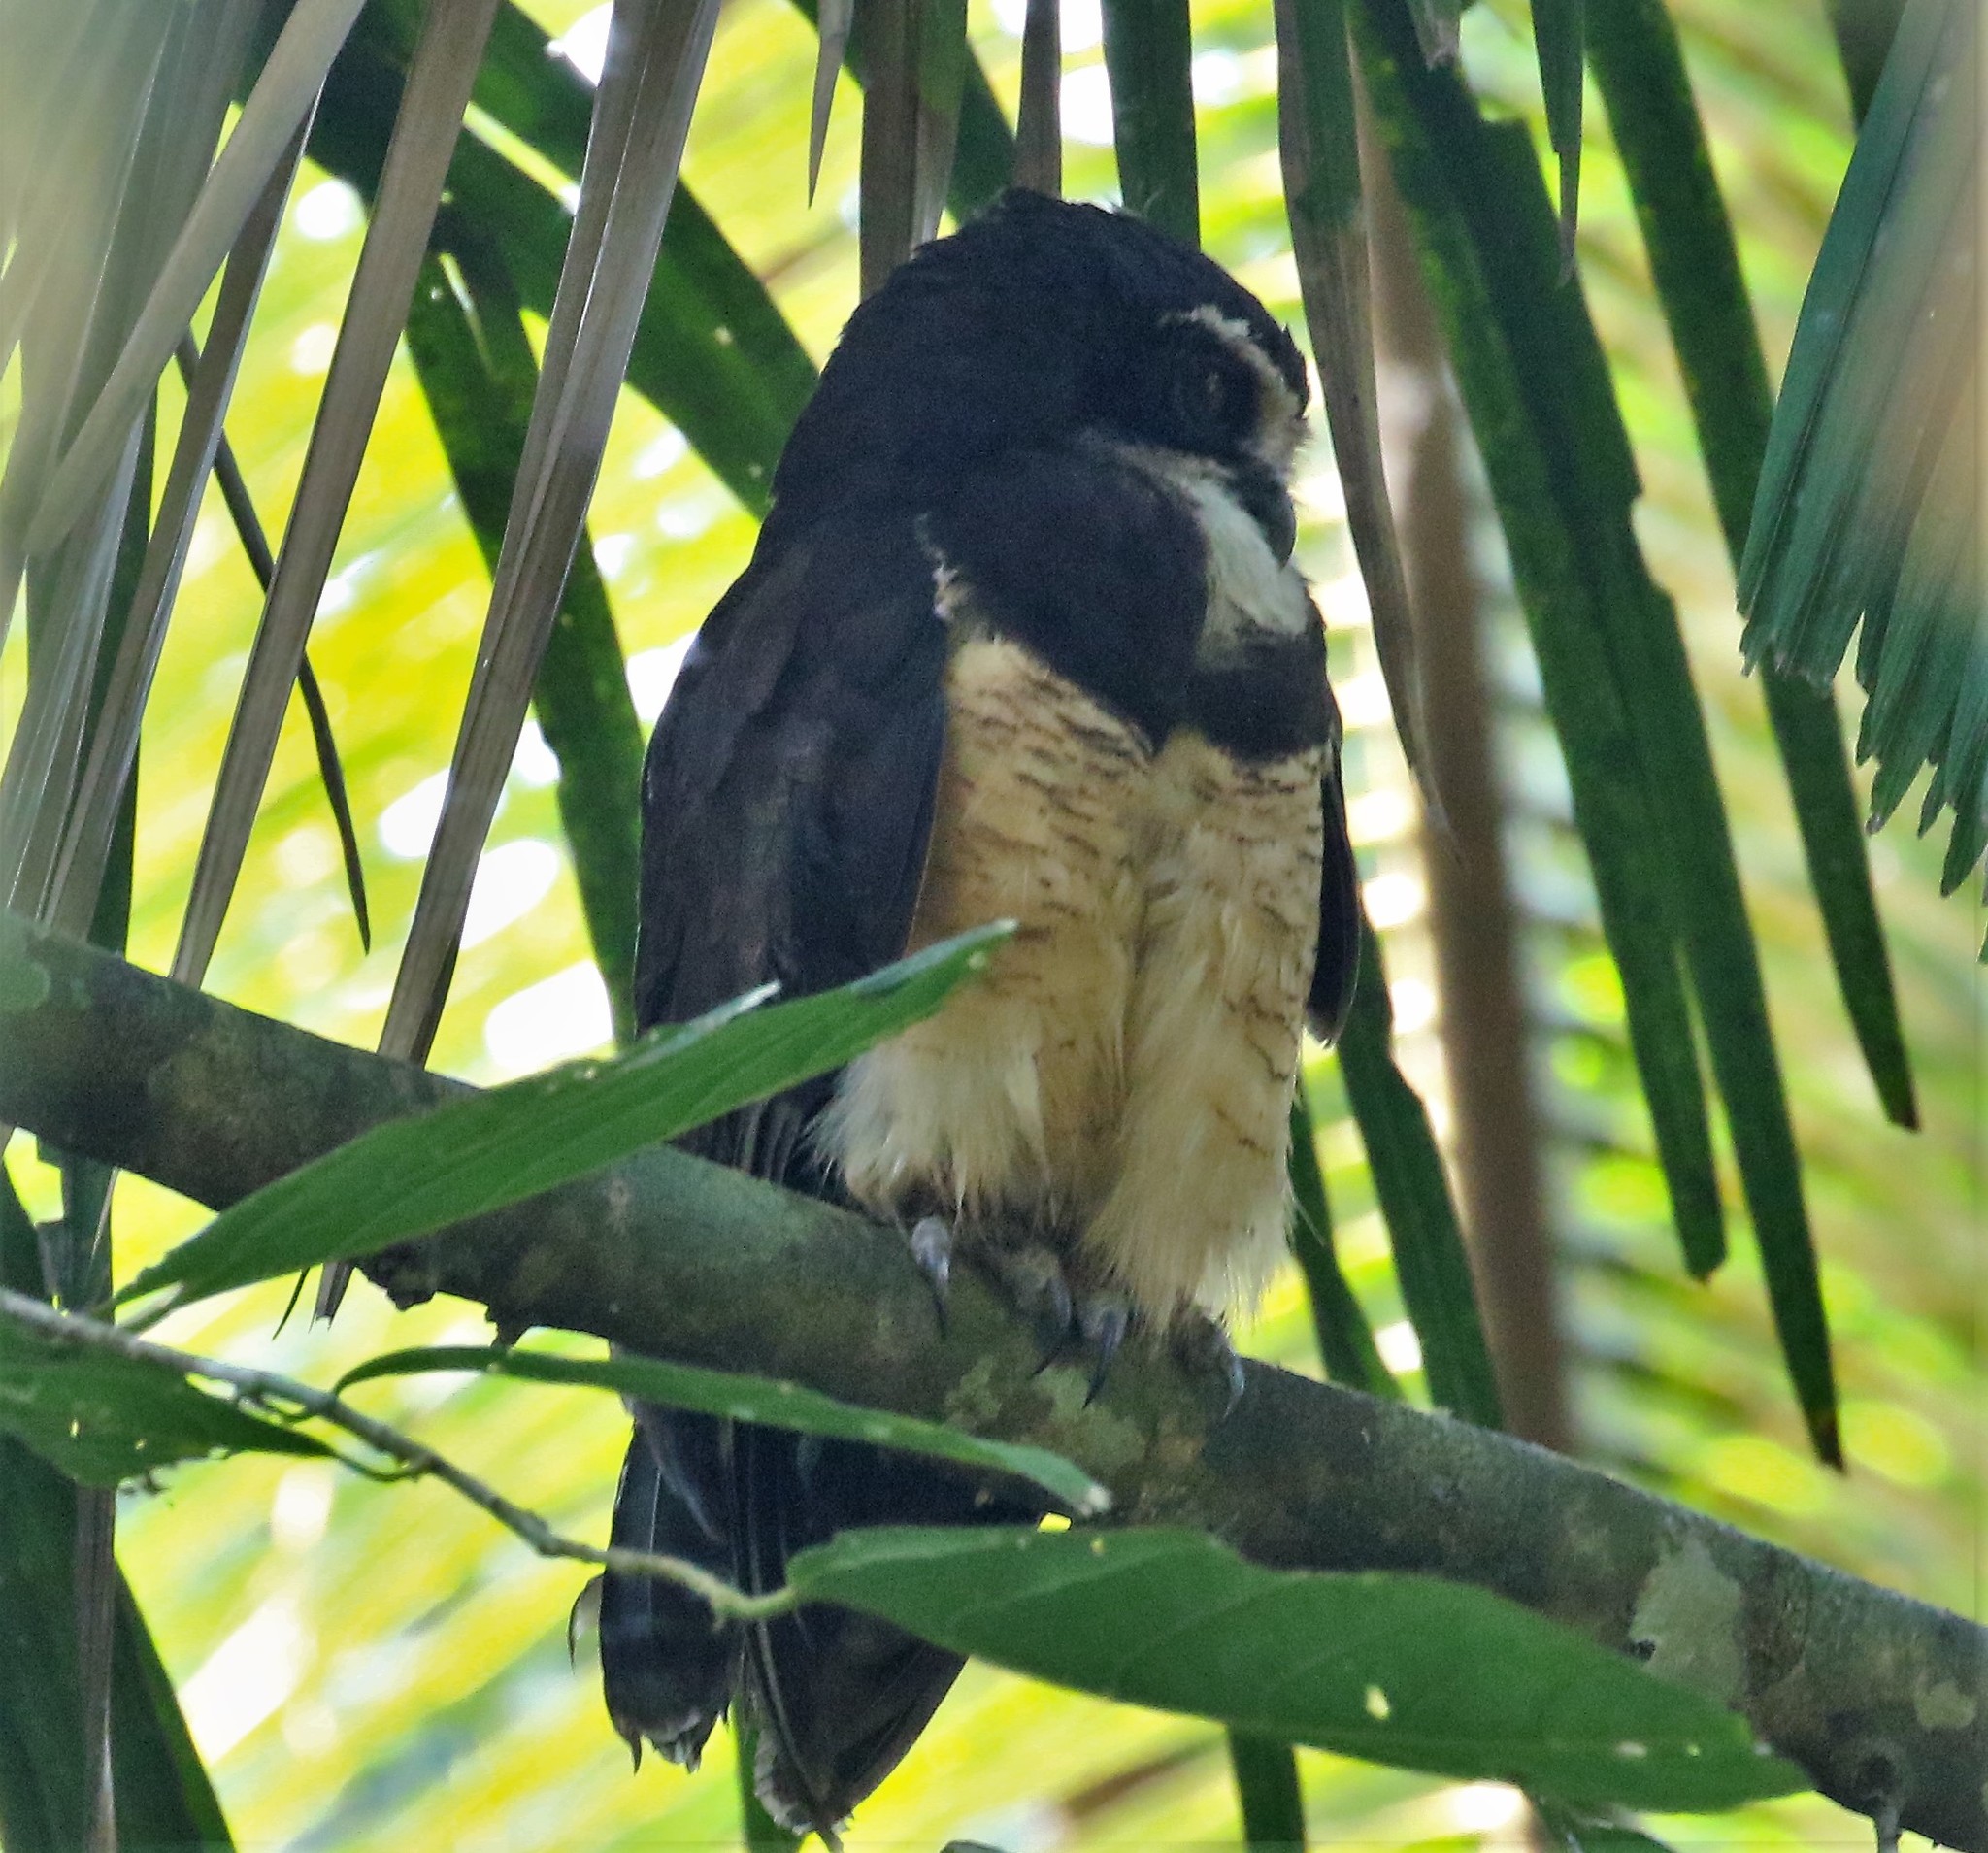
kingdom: Animalia
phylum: Chordata
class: Aves
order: Strigiformes
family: Strigidae
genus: Pulsatrix
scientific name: Pulsatrix perspicillata
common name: Spectacled owl
